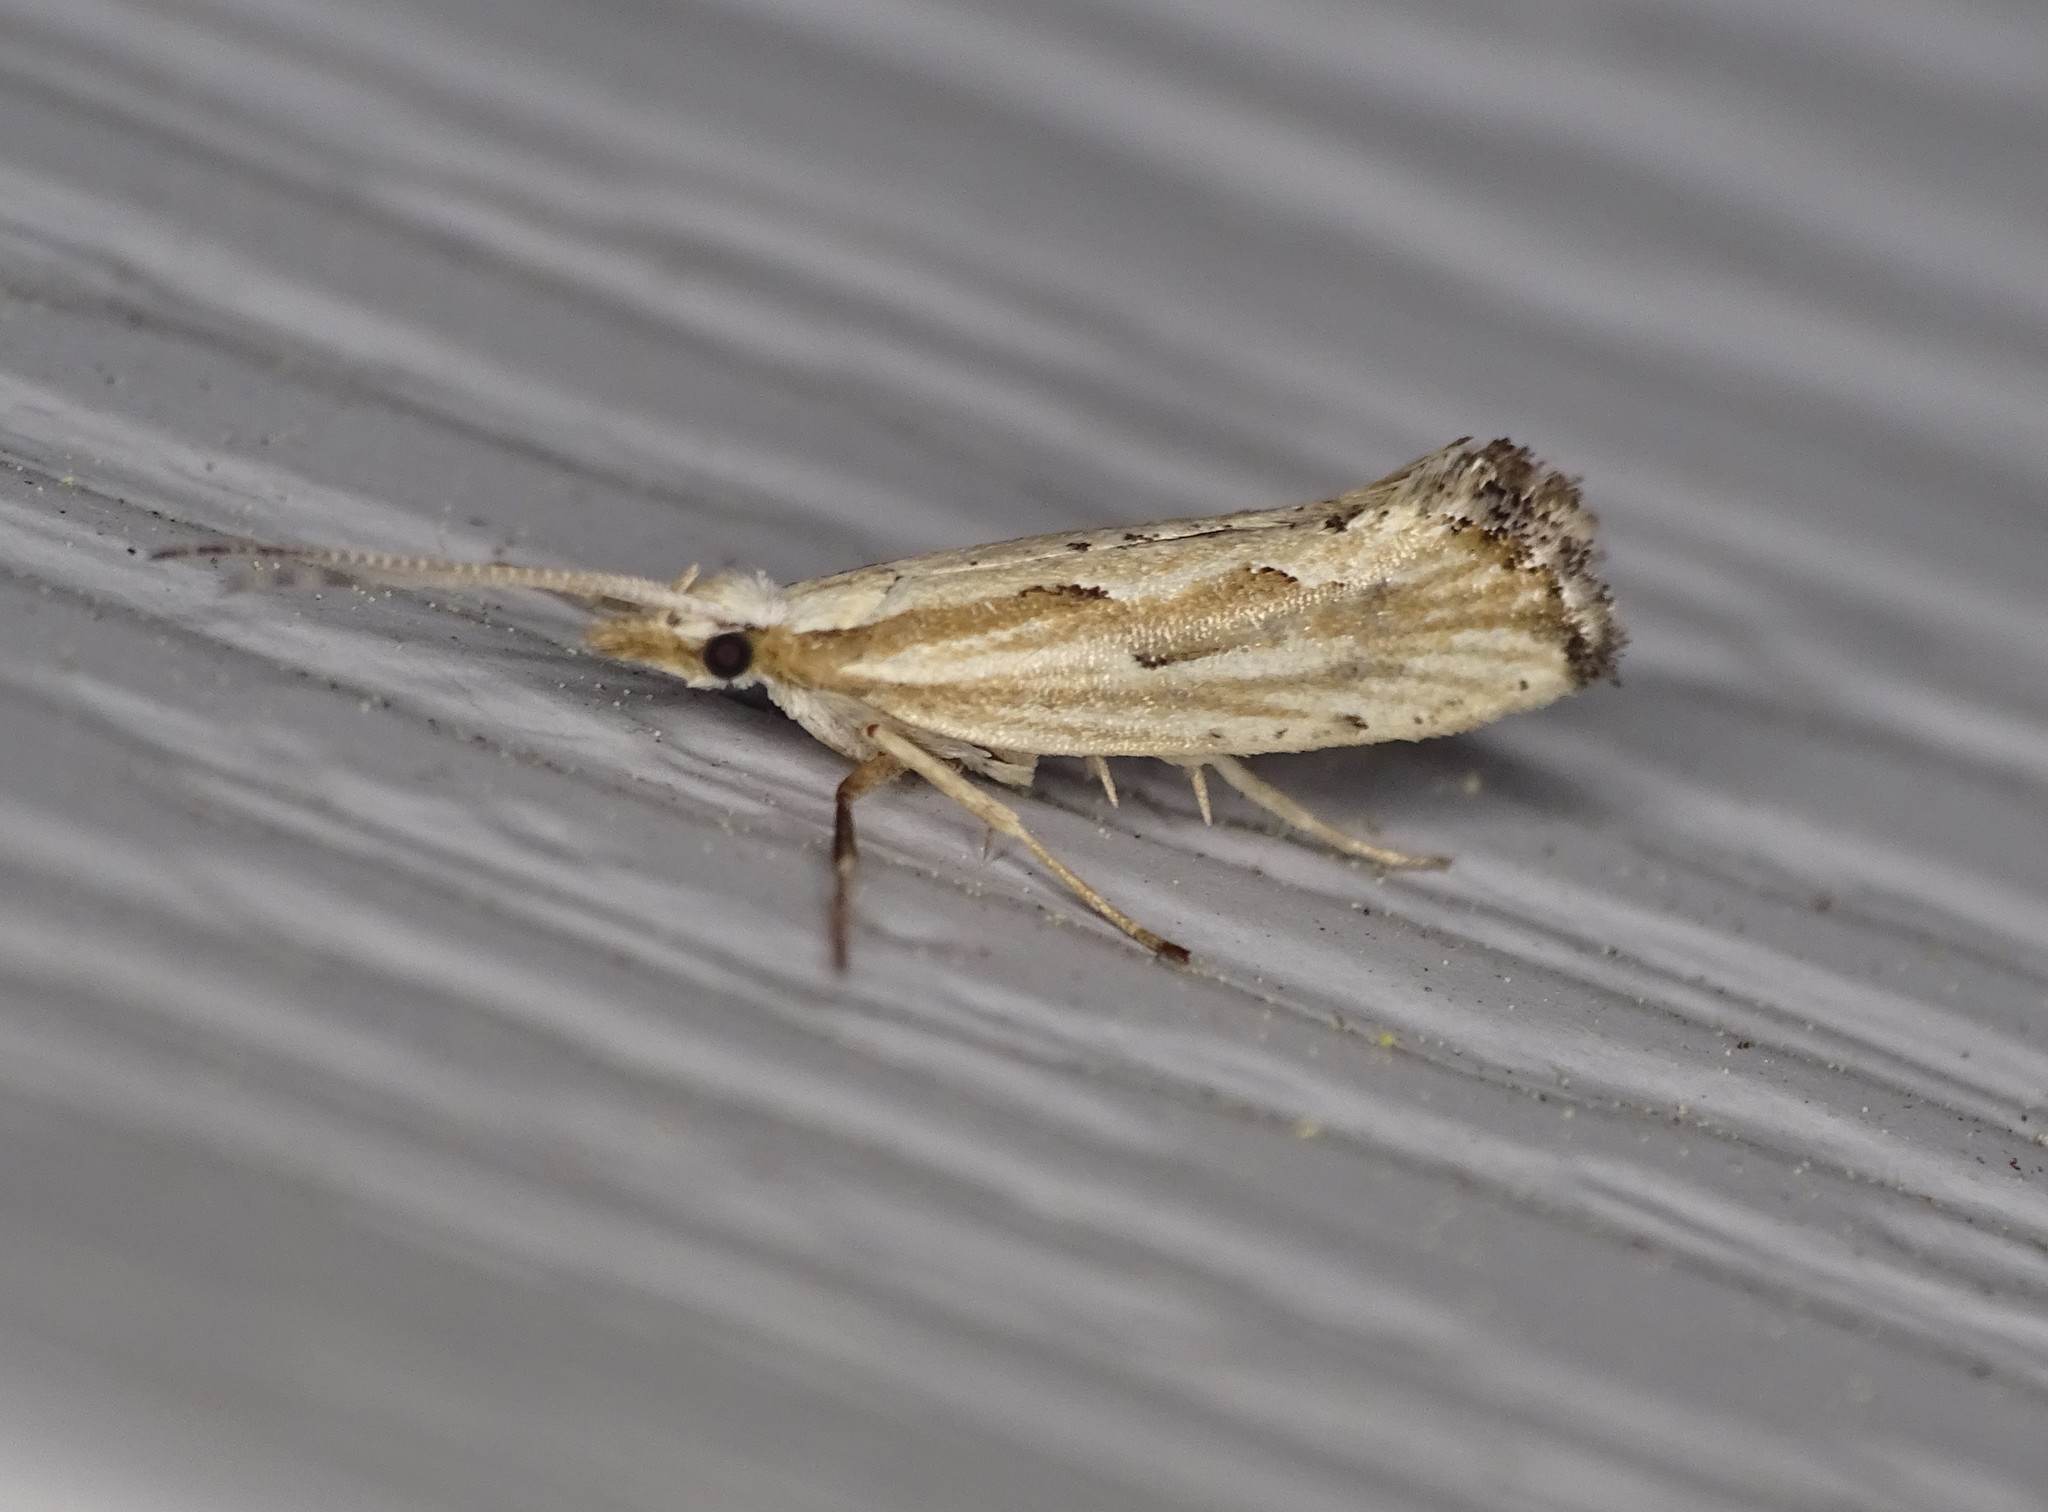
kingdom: Animalia
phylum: Arthropoda
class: Insecta
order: Lepidoptera
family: Plutellidae
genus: Plutella
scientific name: Plutella porrectella
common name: Dame's rocket moth
